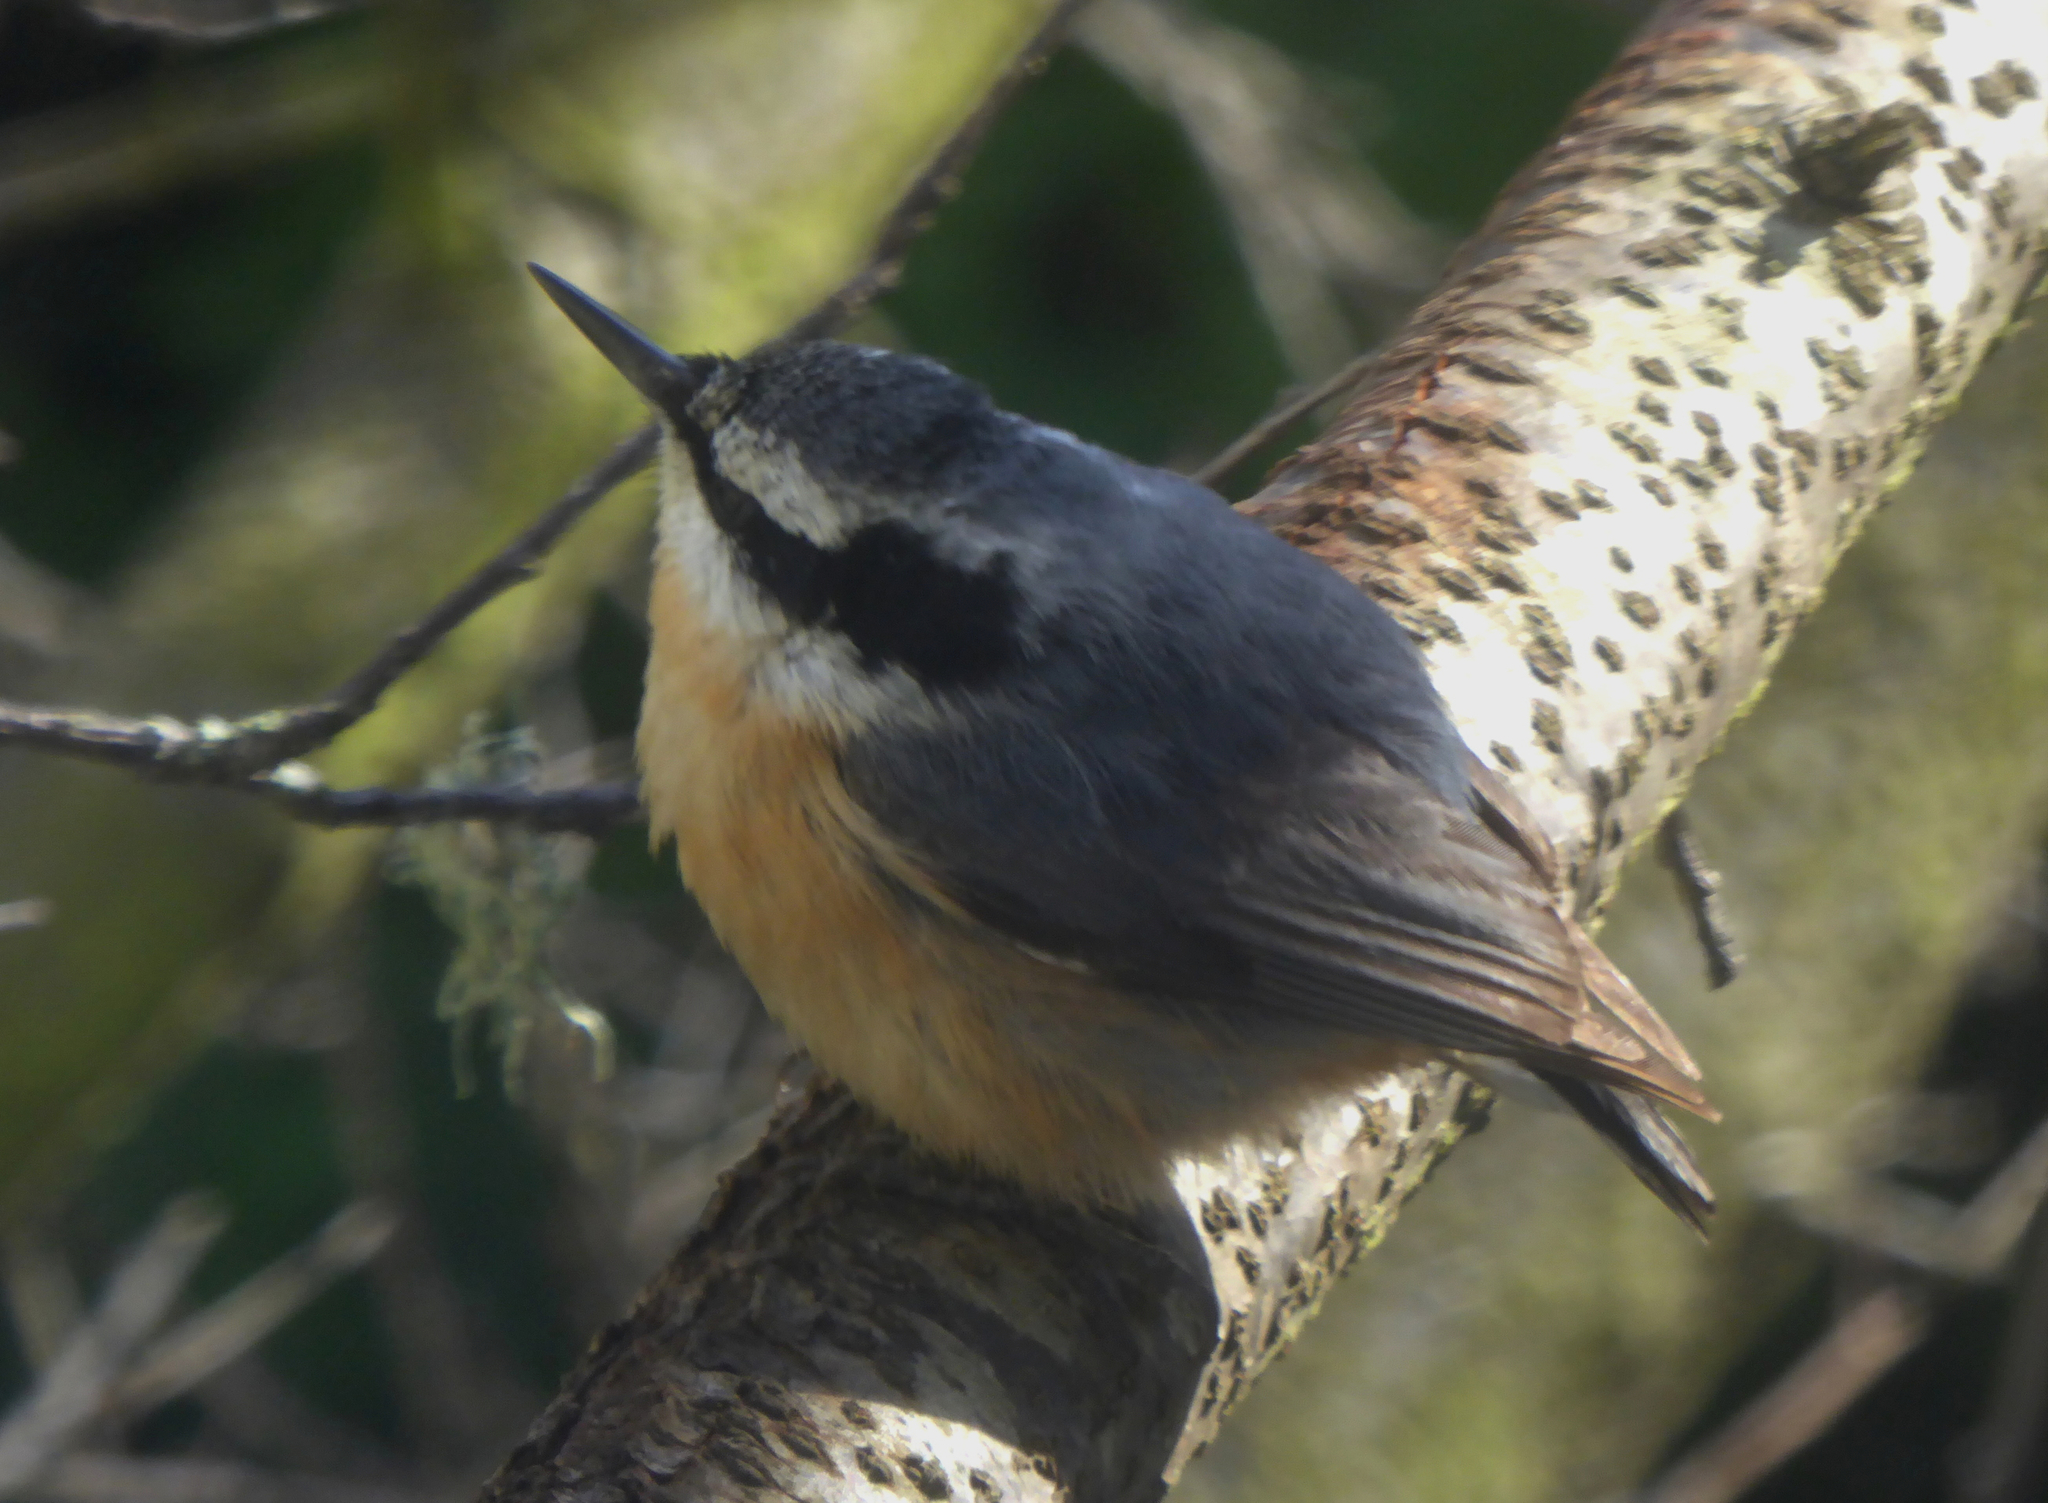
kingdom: Animalia
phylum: Chordata
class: Aves
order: Passeriformes
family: Sittidae
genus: Sitta
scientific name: Sitta canadensis
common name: Red-breasted nuthatch
